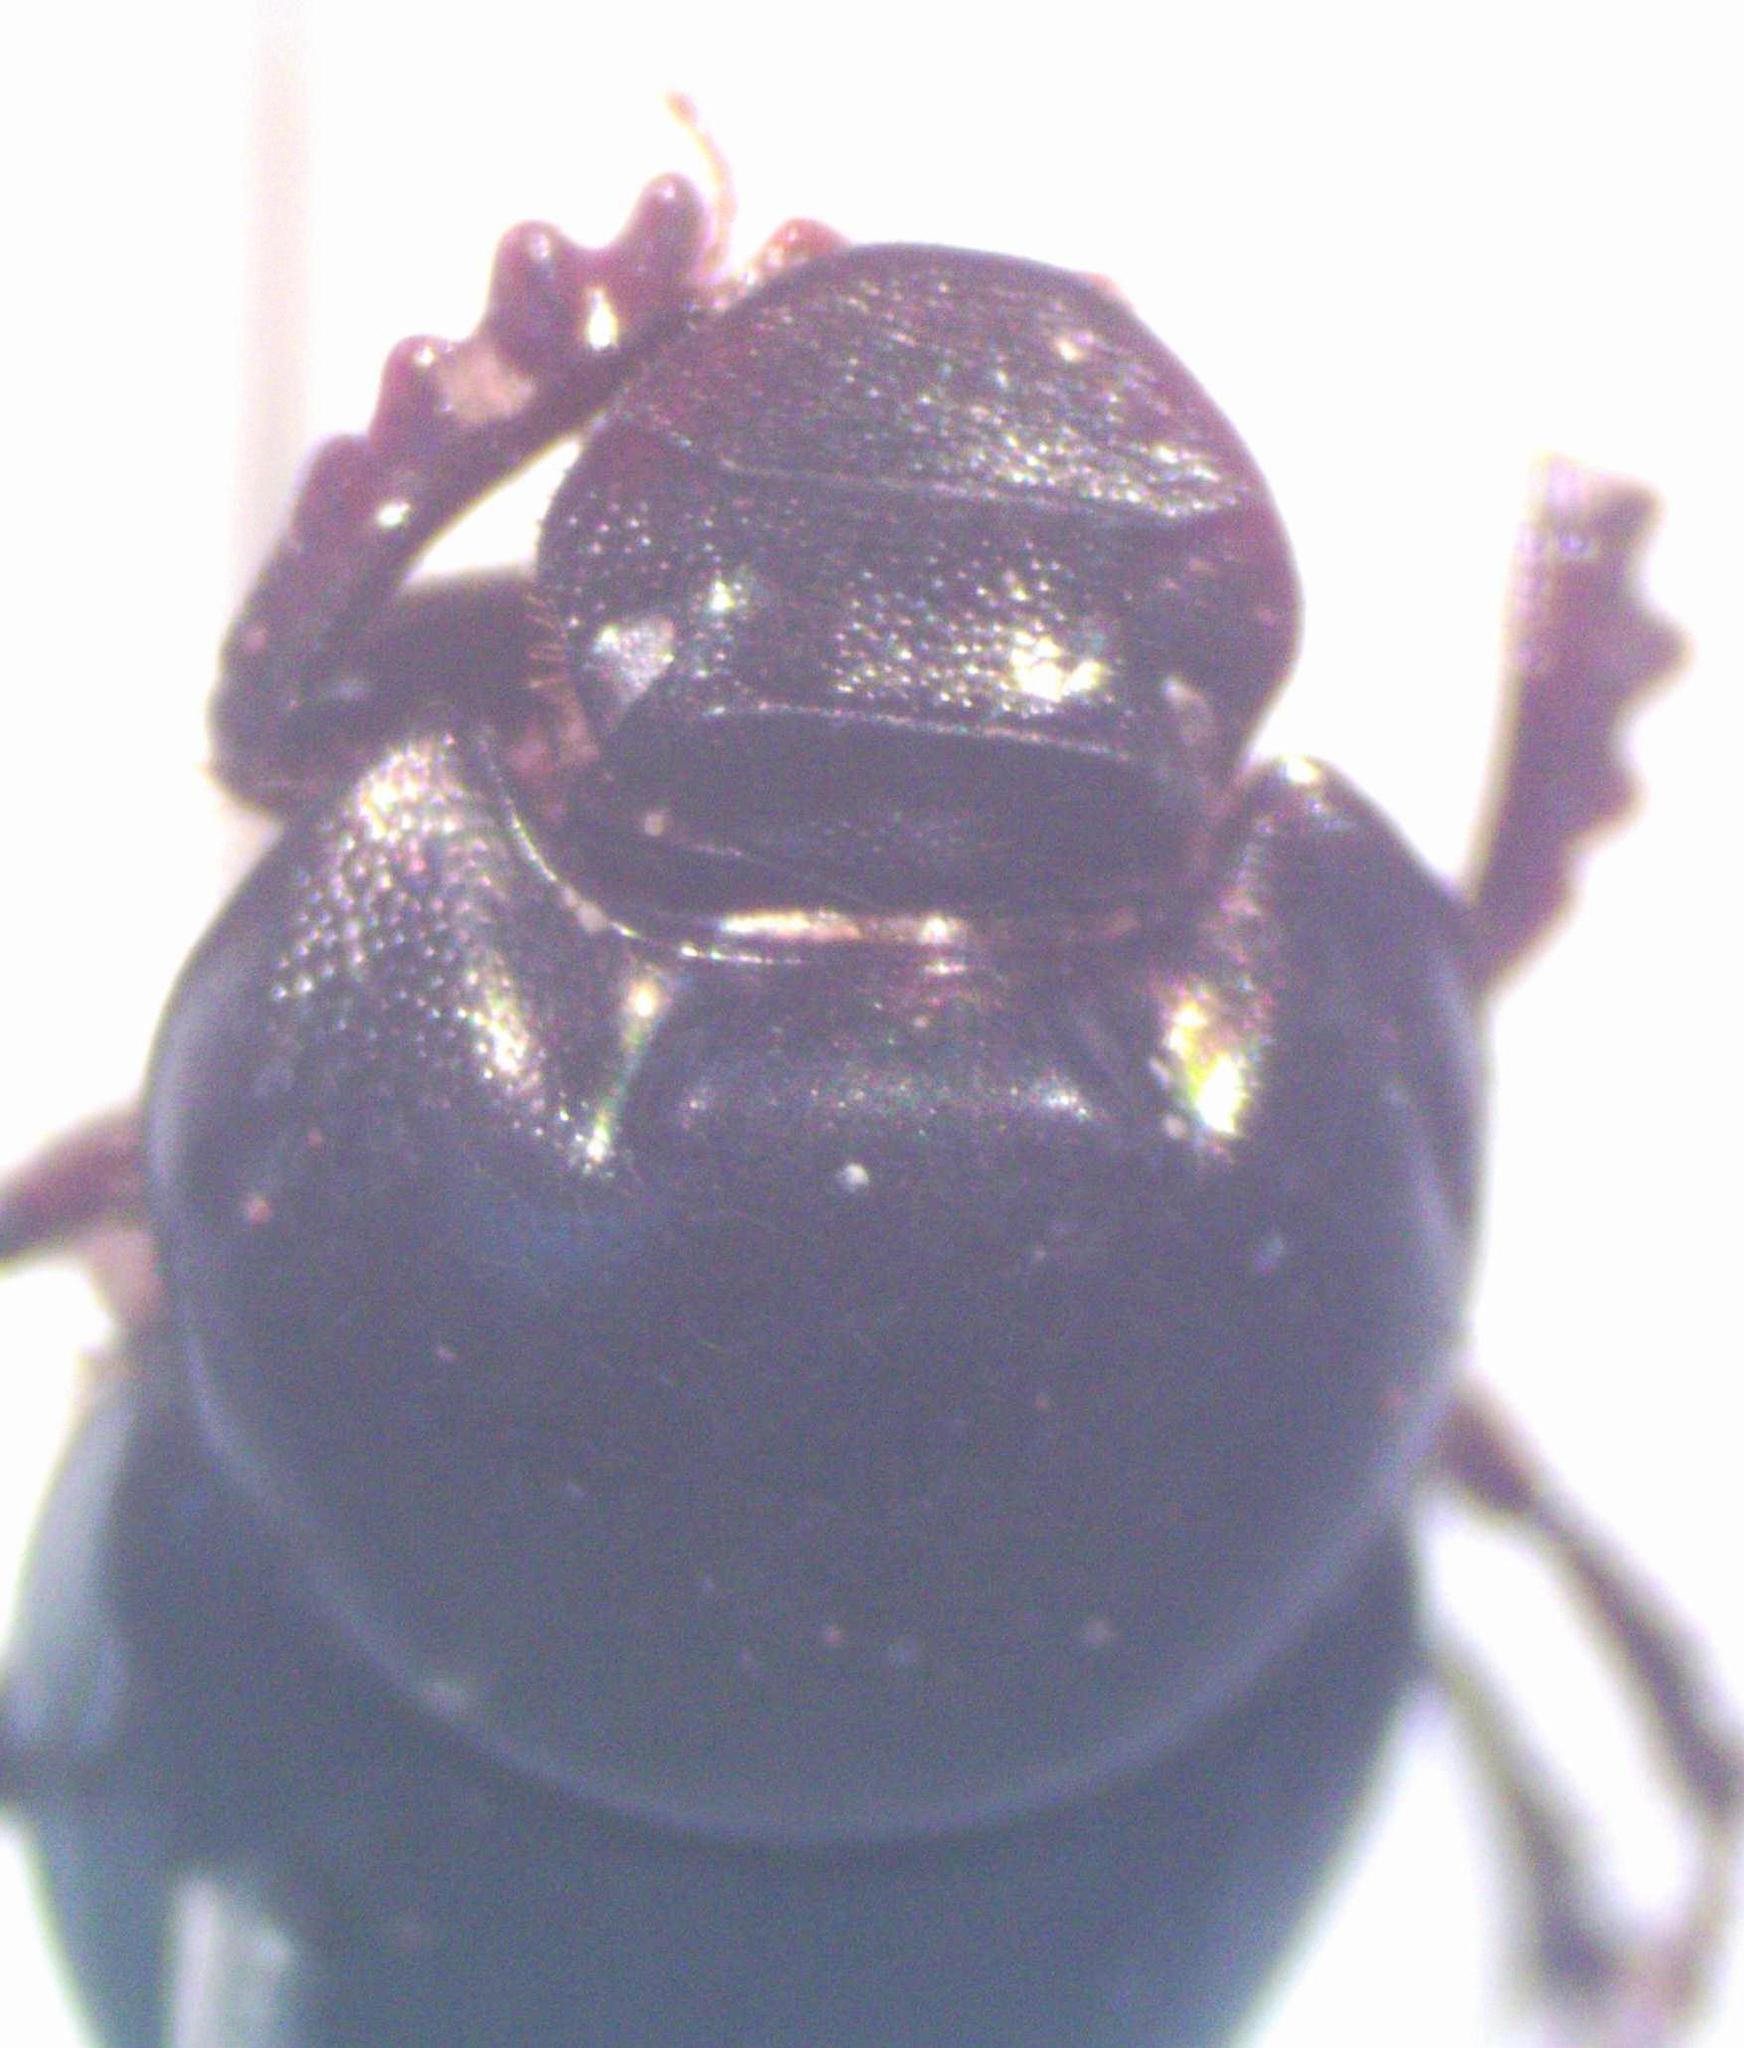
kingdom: Animalia
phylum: Arthropoda
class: Insecta
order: Coleoptera
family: Scarabaeidae
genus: Onthophagus
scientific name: Onthophagus batesi
